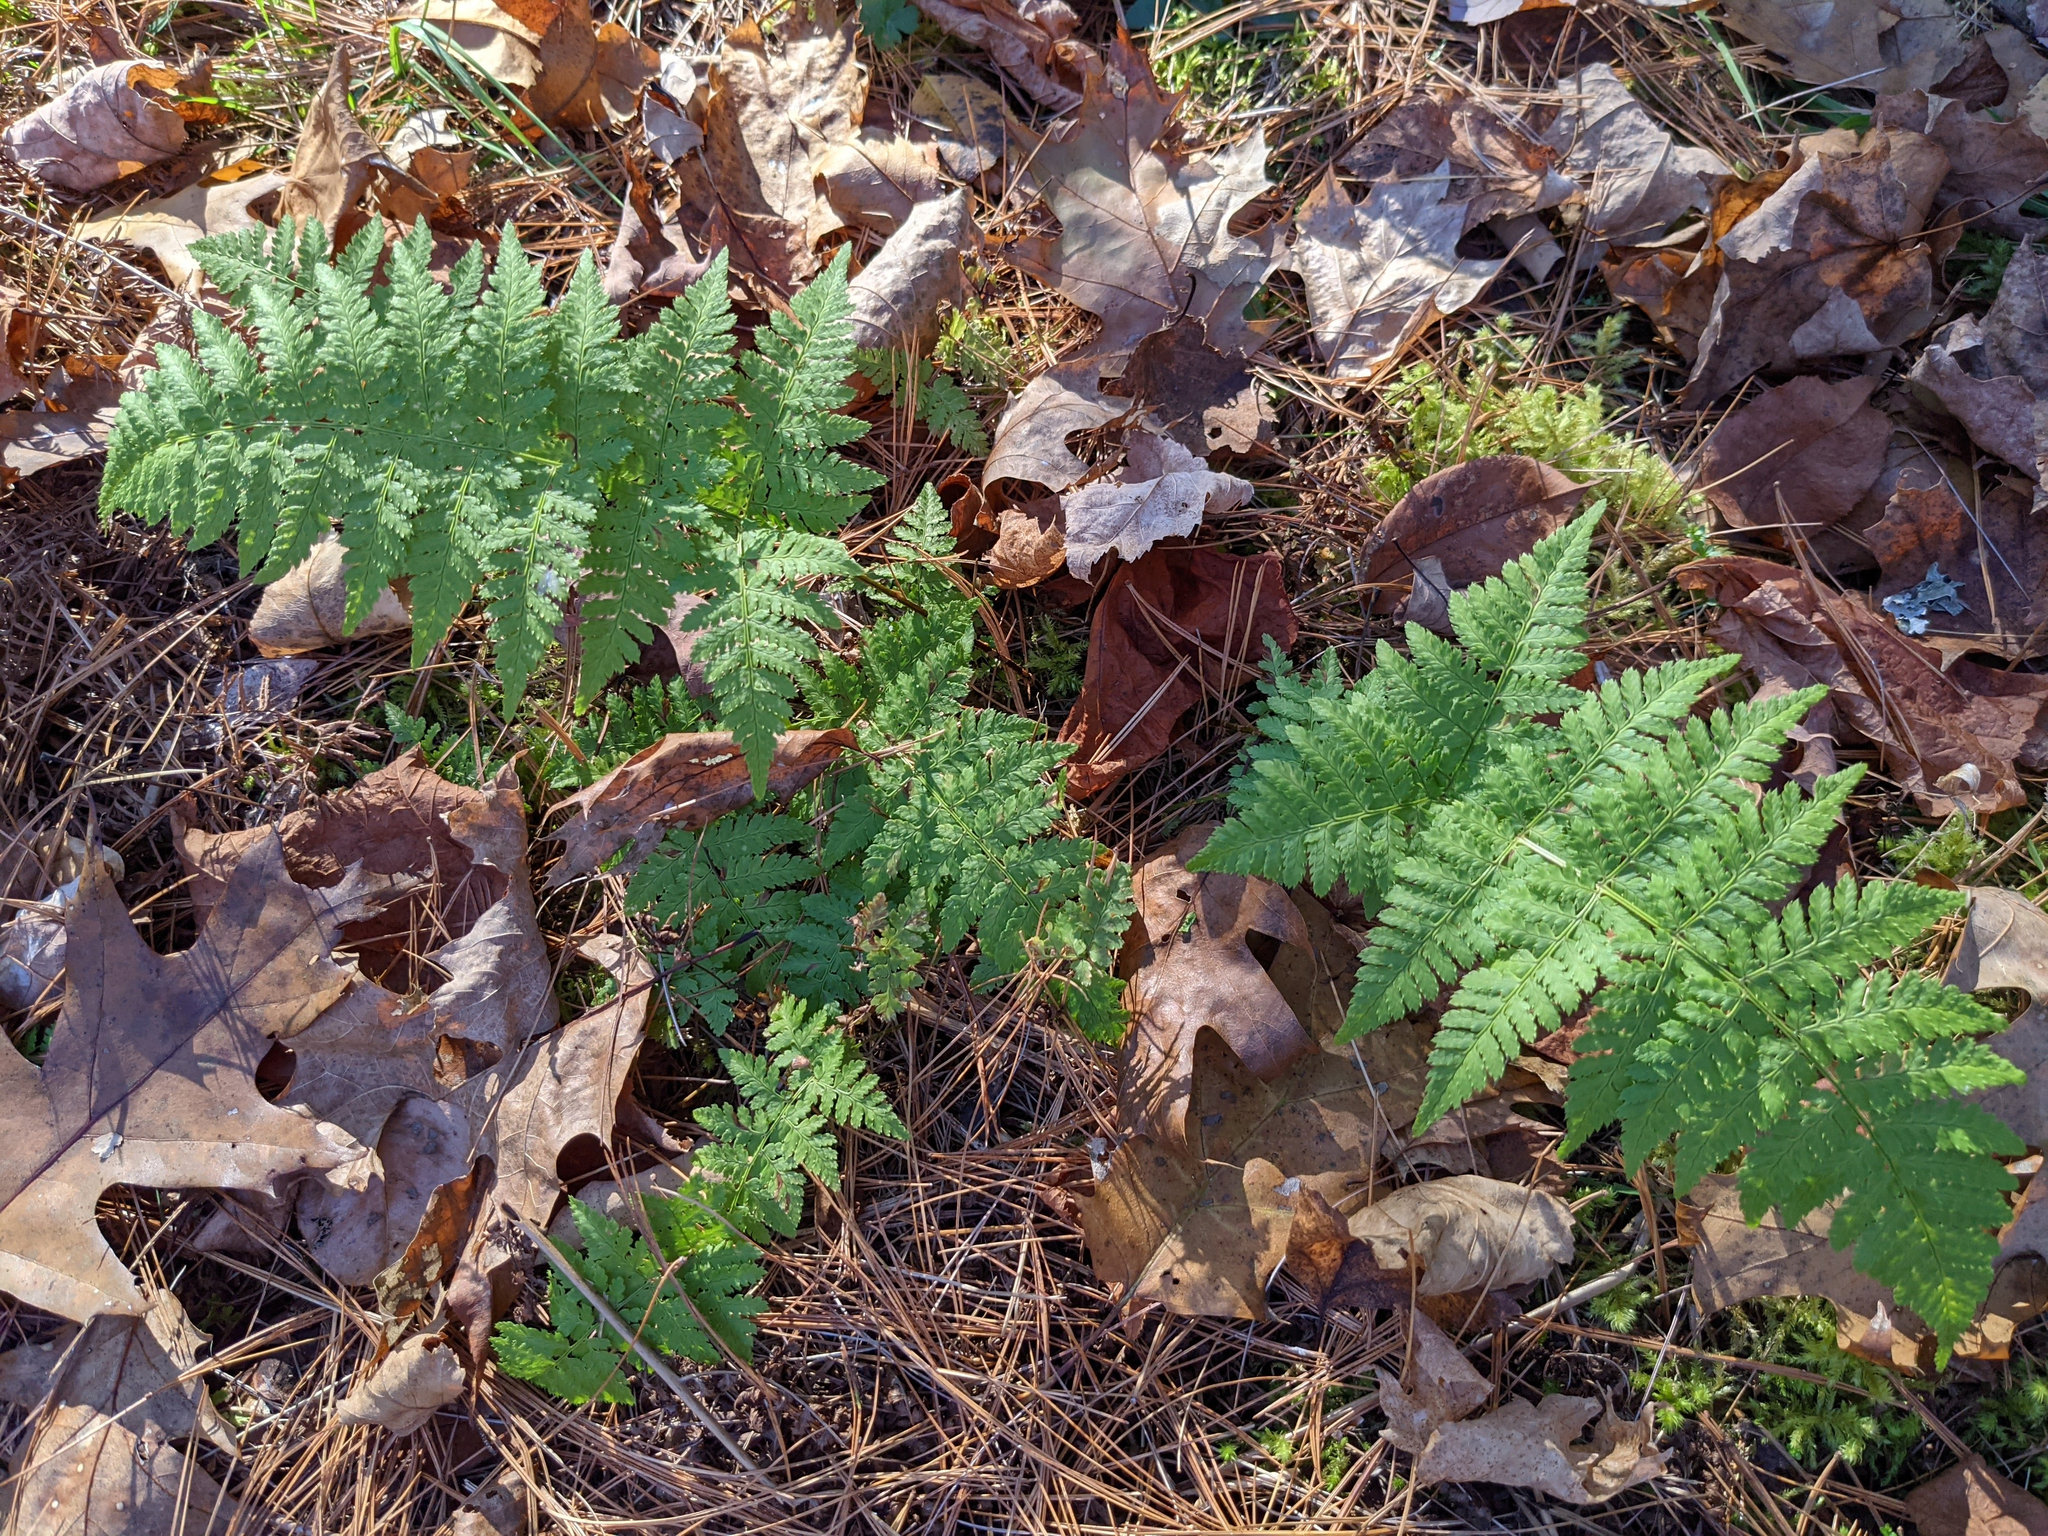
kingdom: Plantae
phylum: Tracheophyta
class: Polypodiopsida
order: Polypodiales
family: Dryopteridaceae
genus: Dryopteris
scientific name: Dryopteris intermedia
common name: Evergreen wood fern
